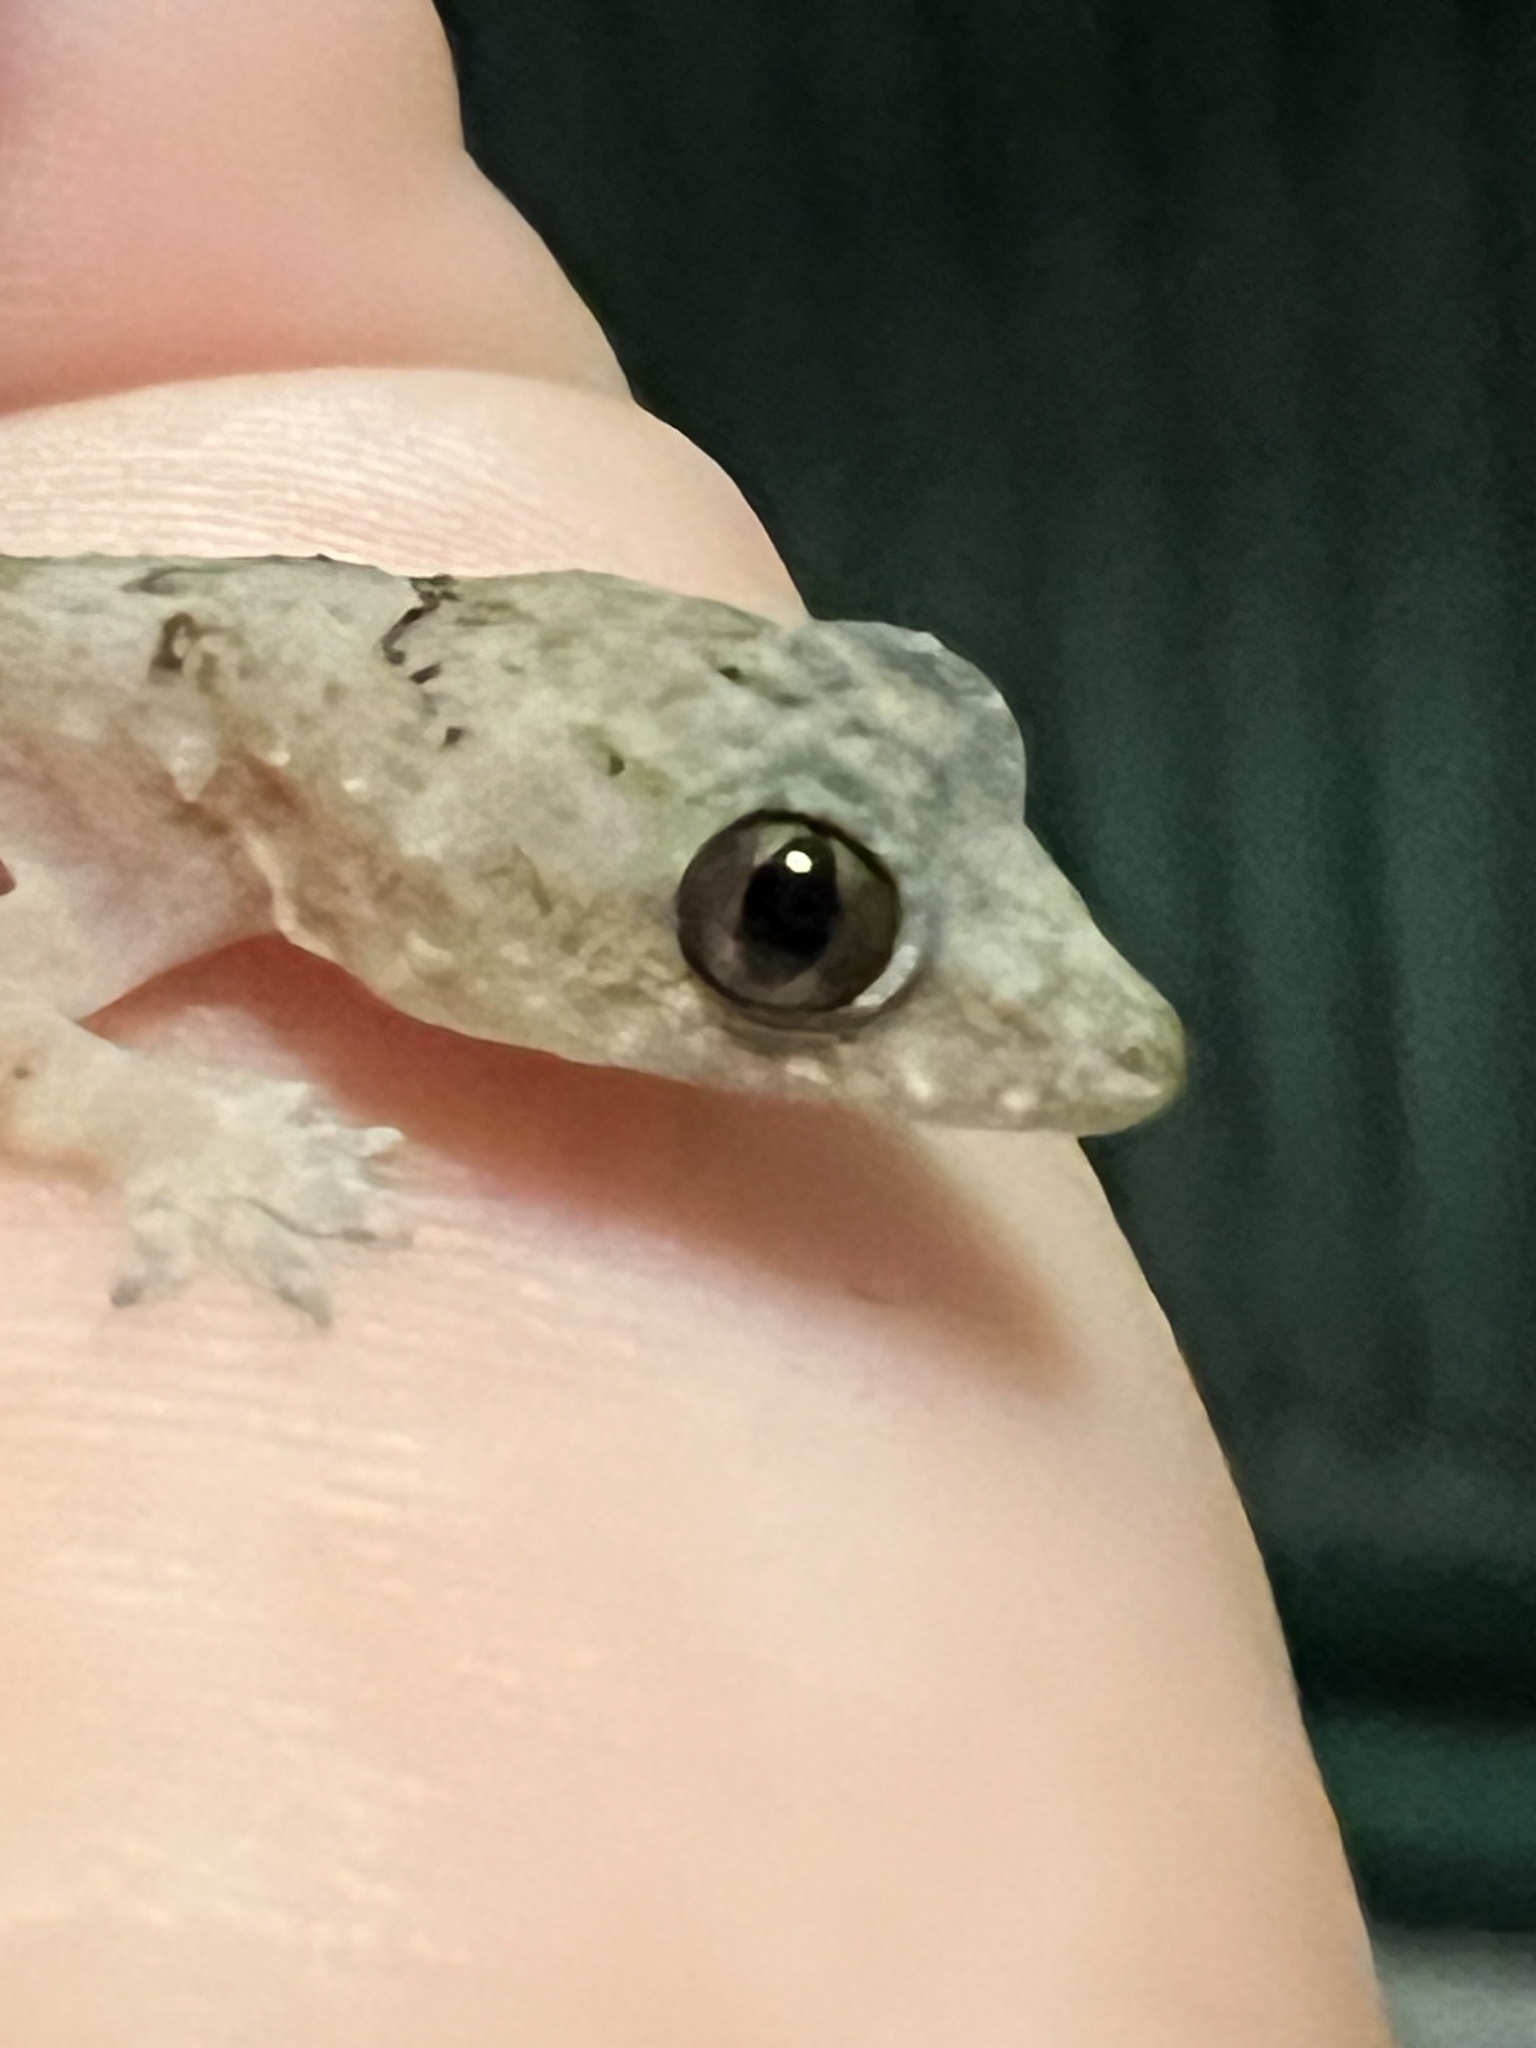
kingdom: Animalia
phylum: Chordata
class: Squamata
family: Gekkonidae
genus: Hemidactylus
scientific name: Hemidactylus mabouia
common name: House gecko
